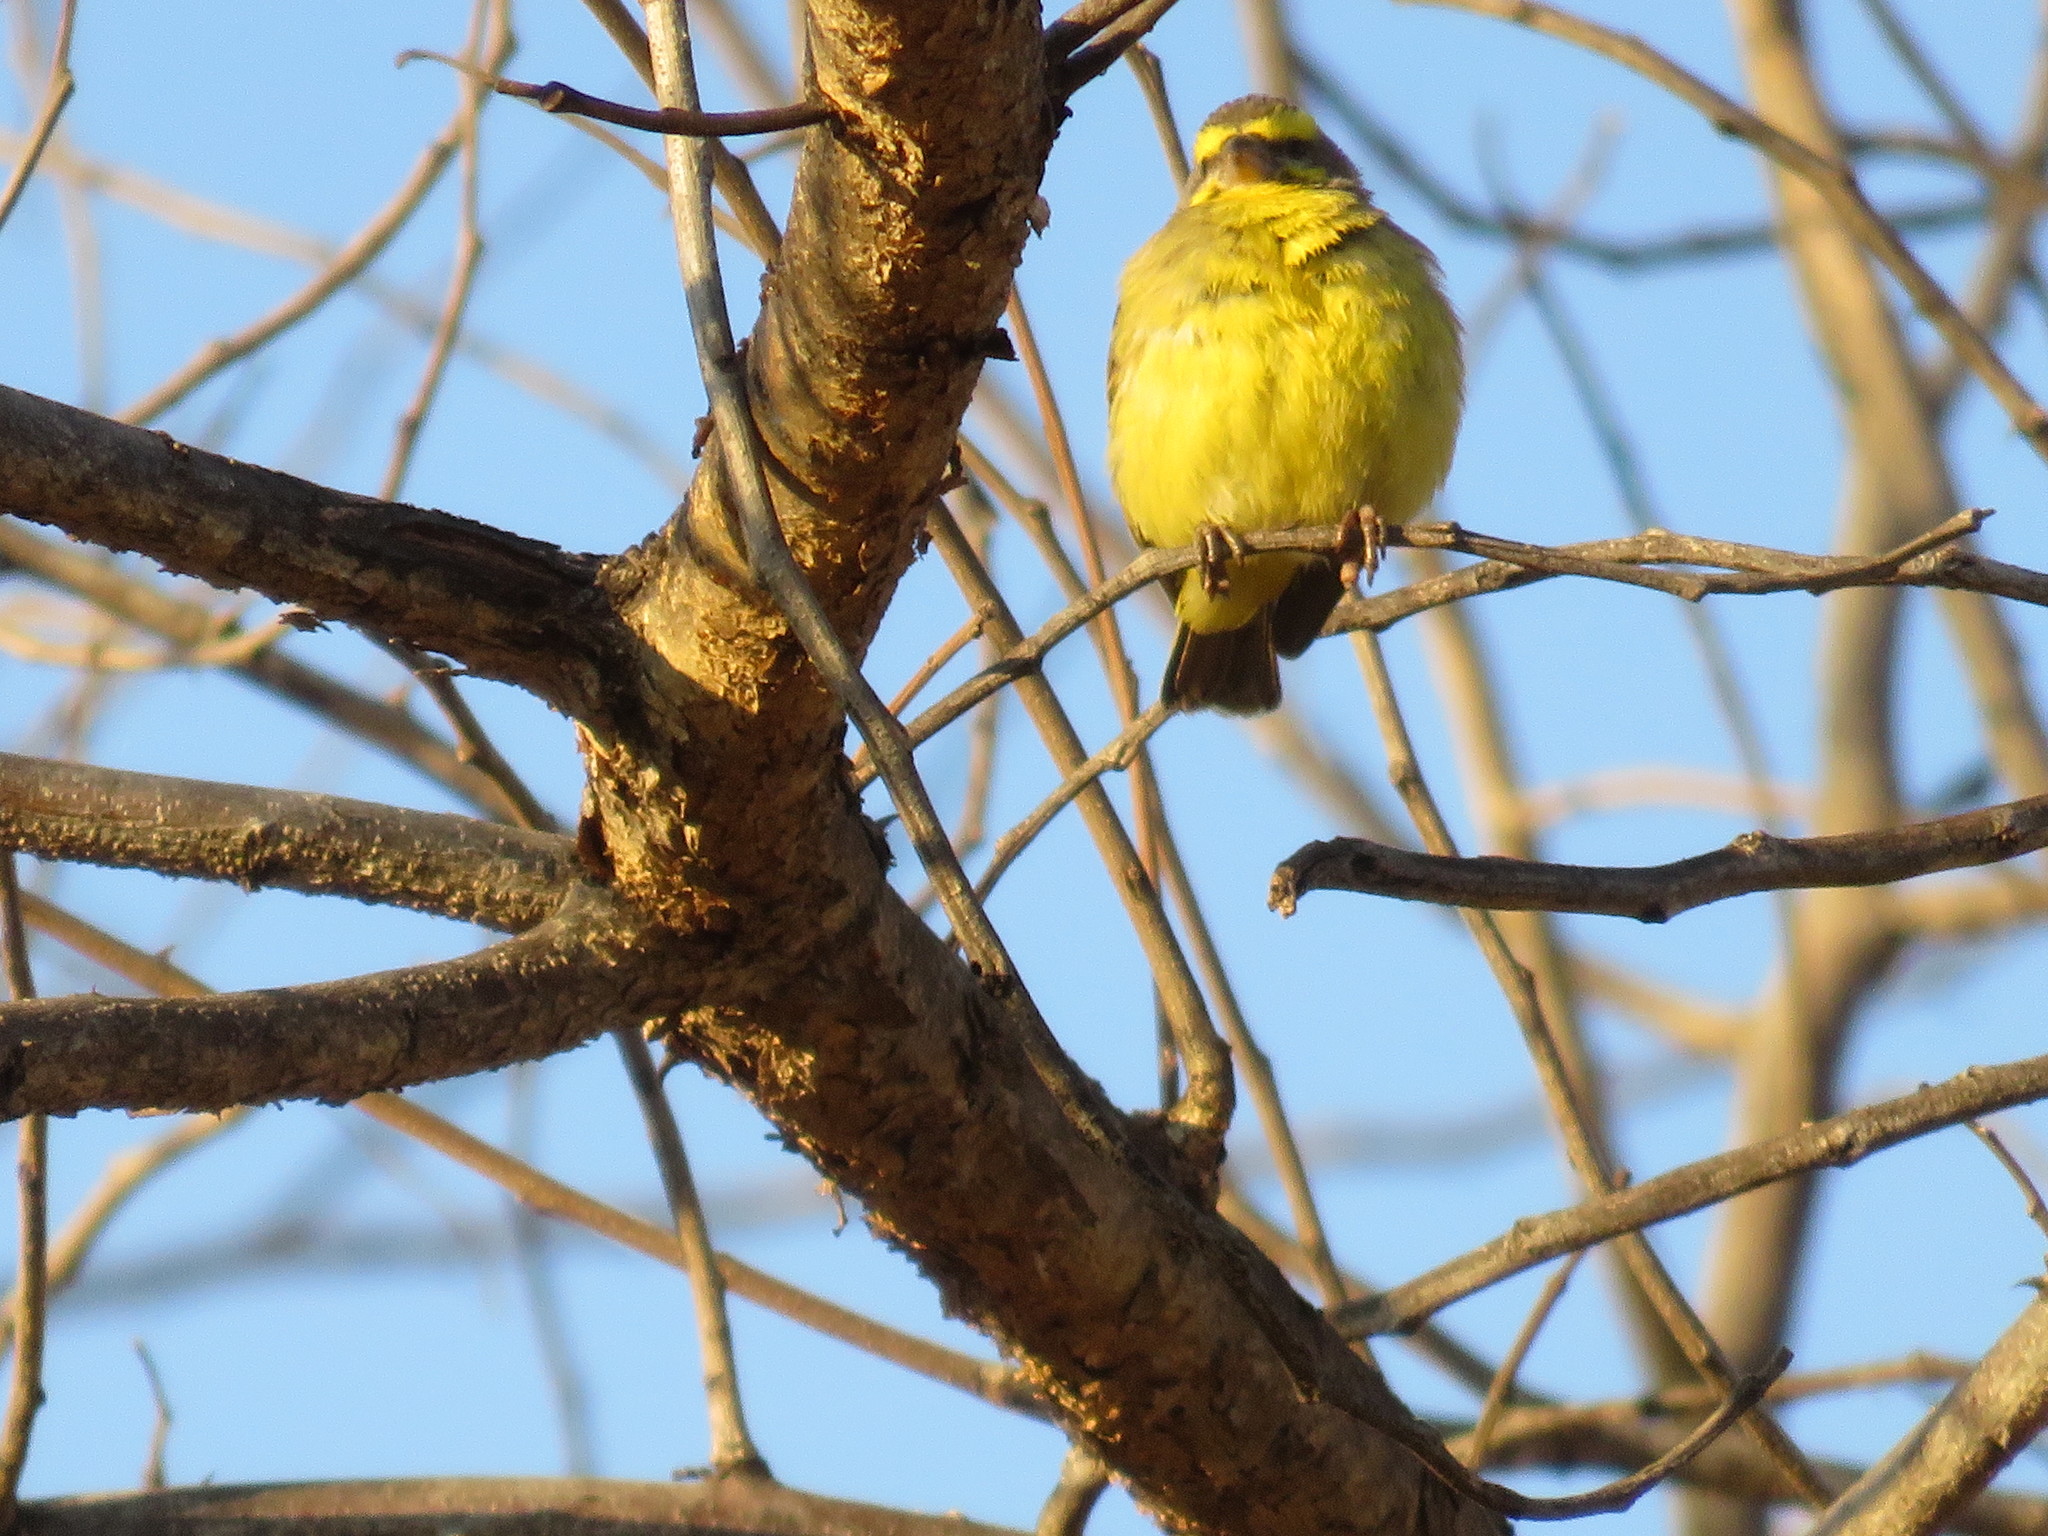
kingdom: Animalia
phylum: Chordata
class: Aves
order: Passeriformes
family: Fringillidae
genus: Crithagra
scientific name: Crithagra mozambica
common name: Yellow-fronted canary
